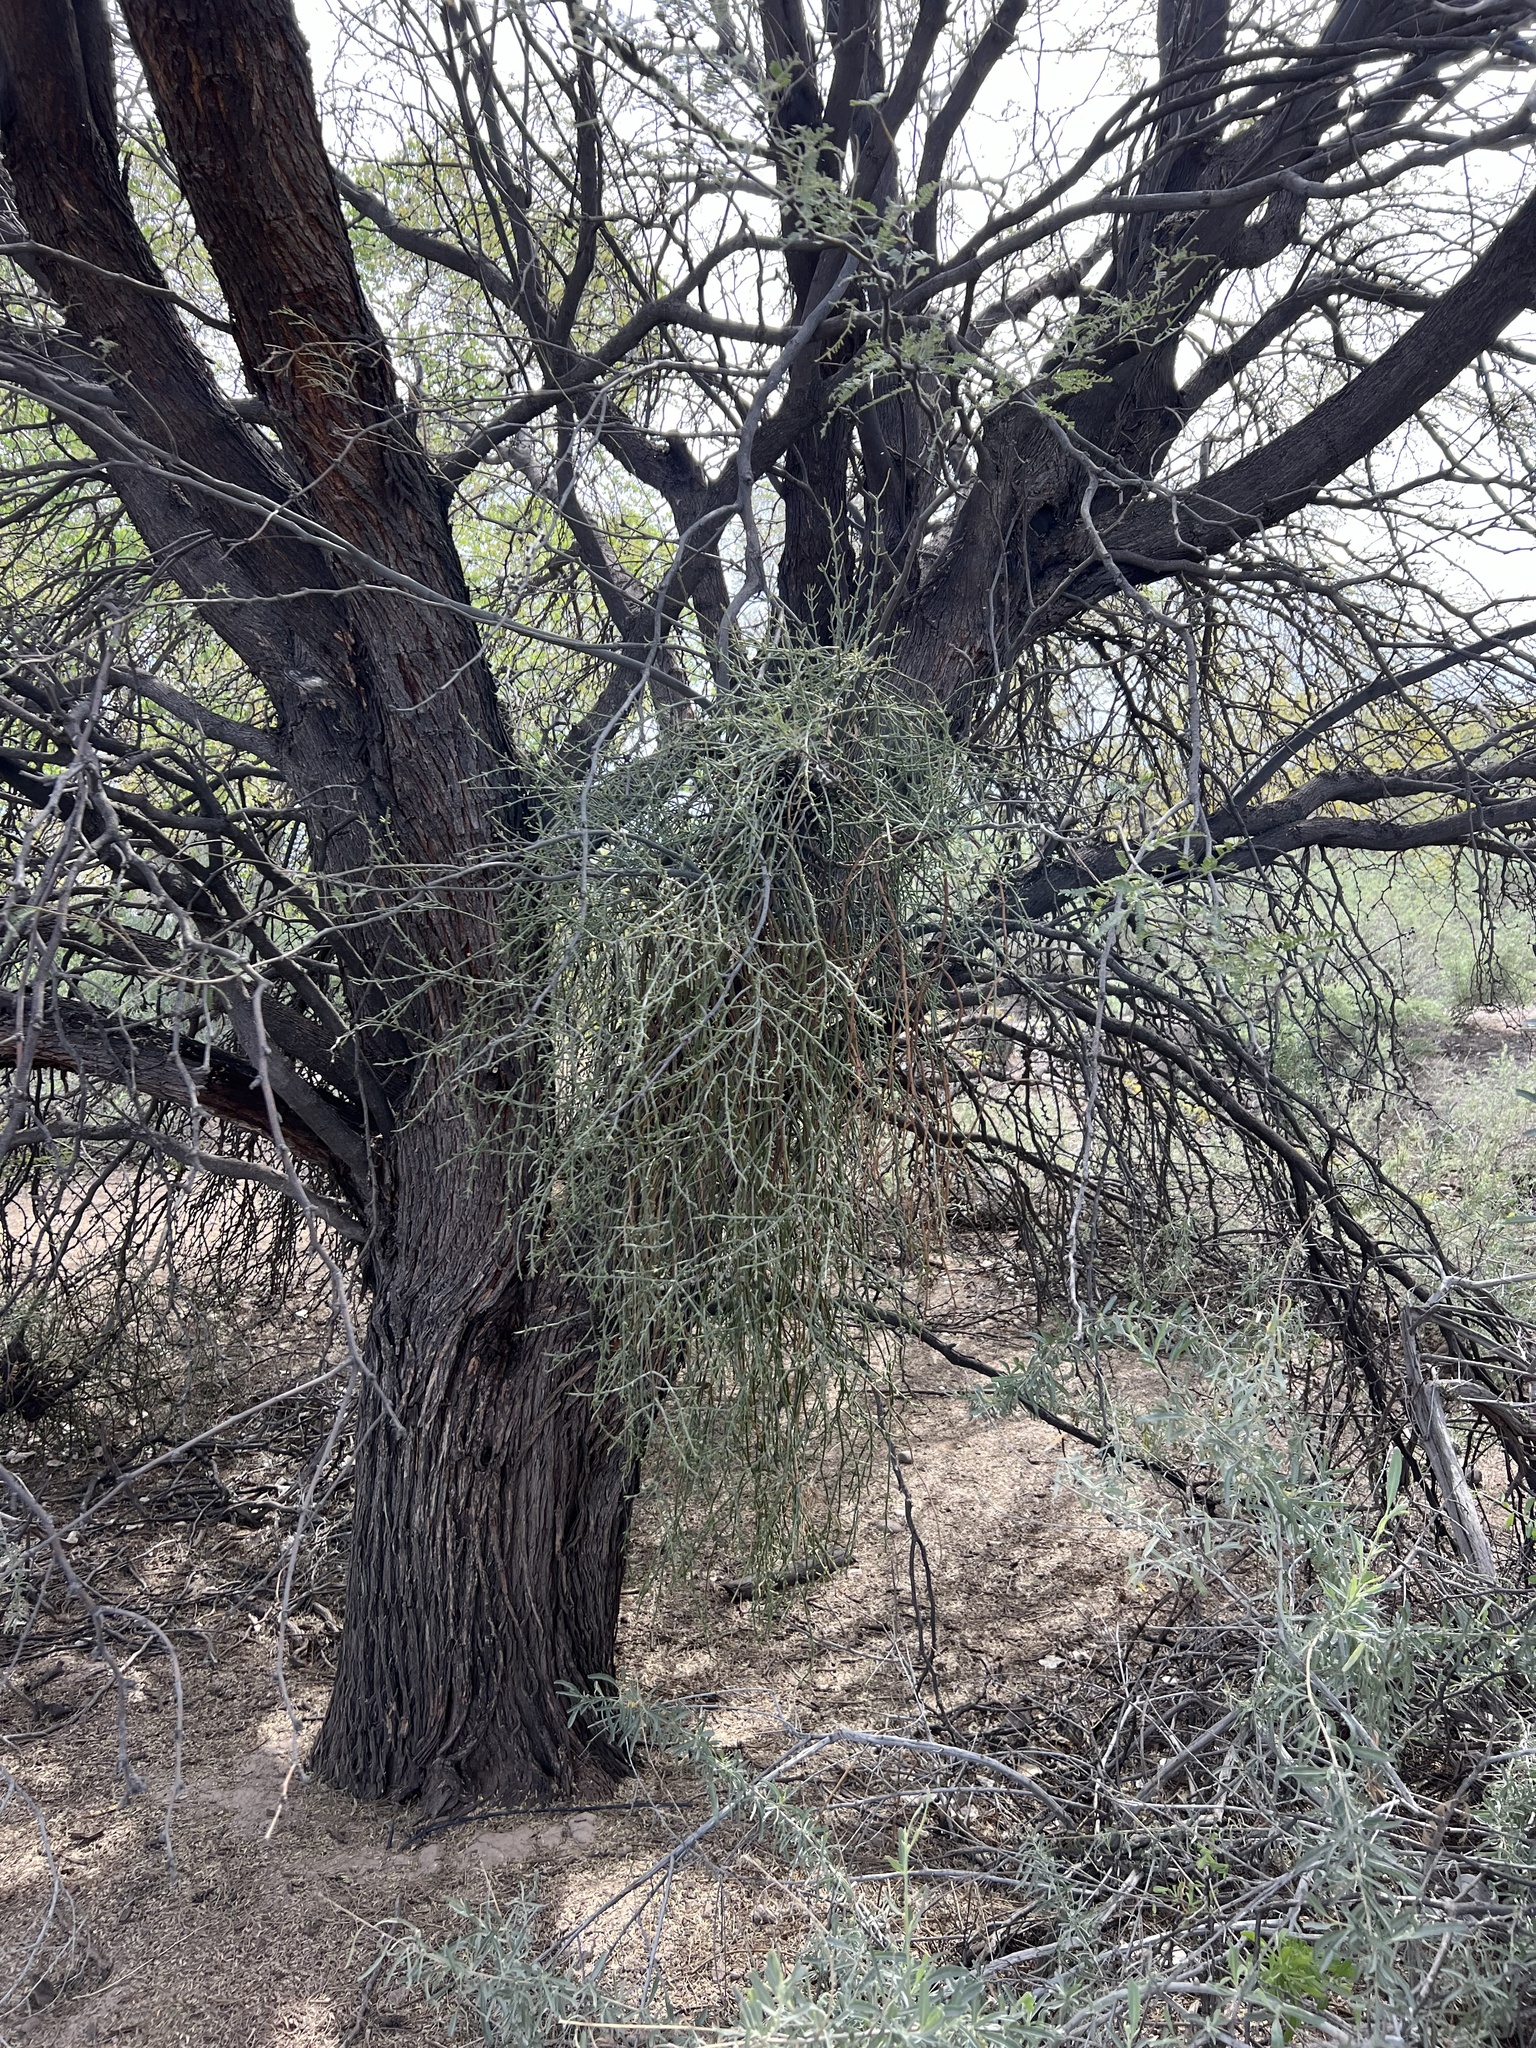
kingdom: Plantae
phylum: Tracheophyta
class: Magnoliopsida
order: Santalales
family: Viscaceae
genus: Phoradendron
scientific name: Phoradendron californicum
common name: Acacia mistletoe
